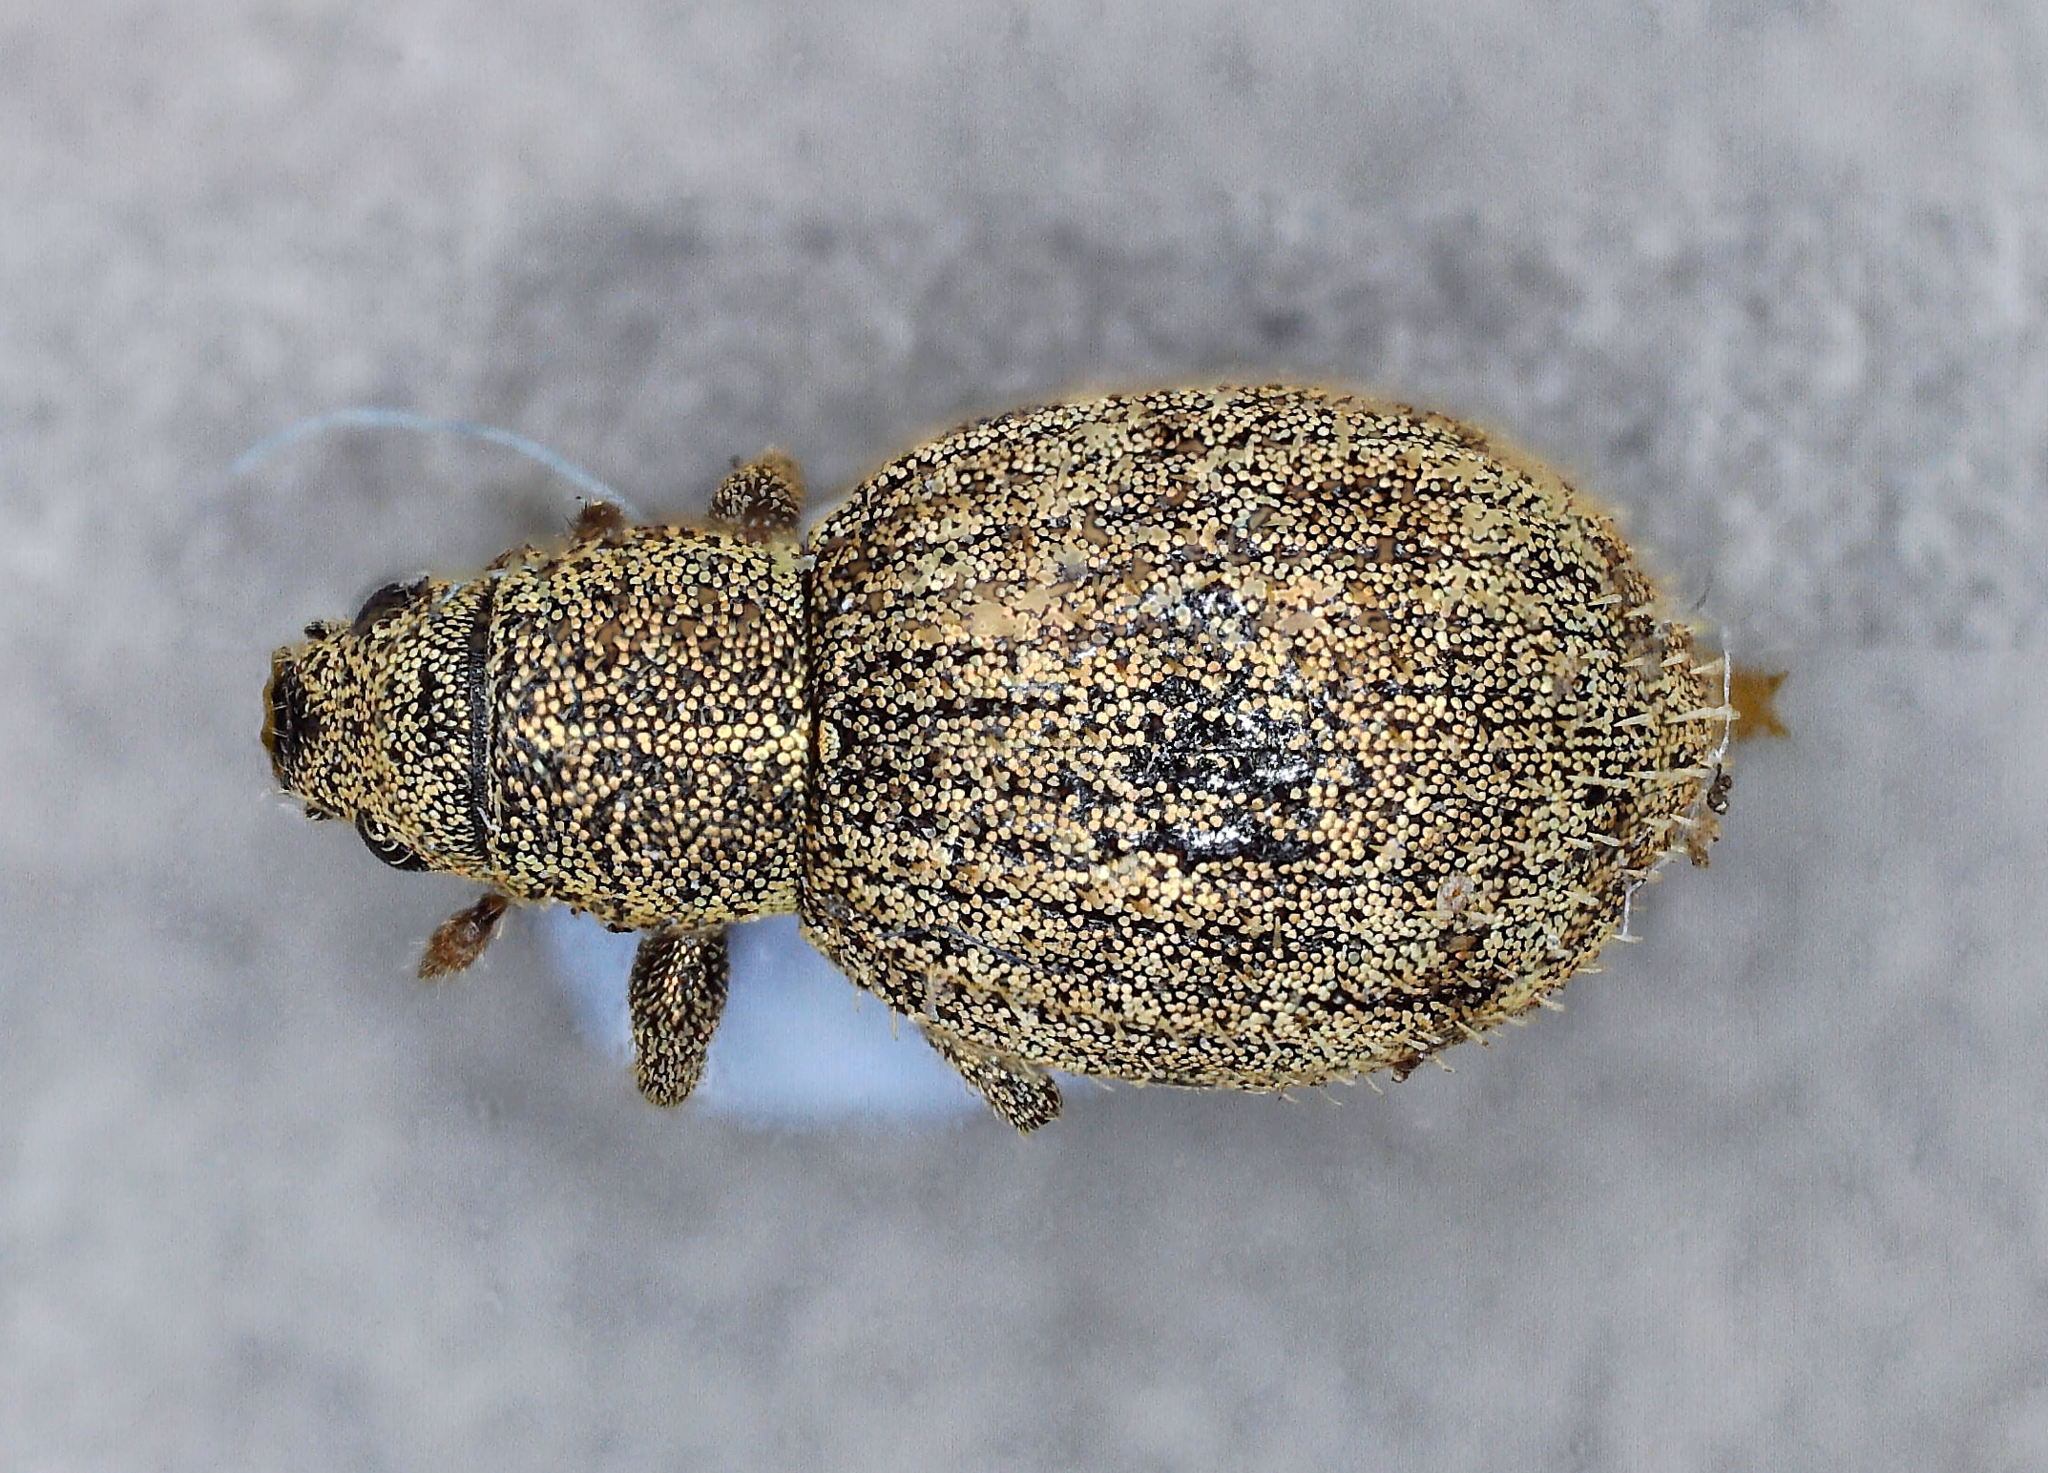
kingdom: Animalia
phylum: Arthropoda
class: Insecta
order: Coleoptera
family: Curculionidae
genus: Sciaphilus
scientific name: Sciaphilus asperatus
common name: Weevil
